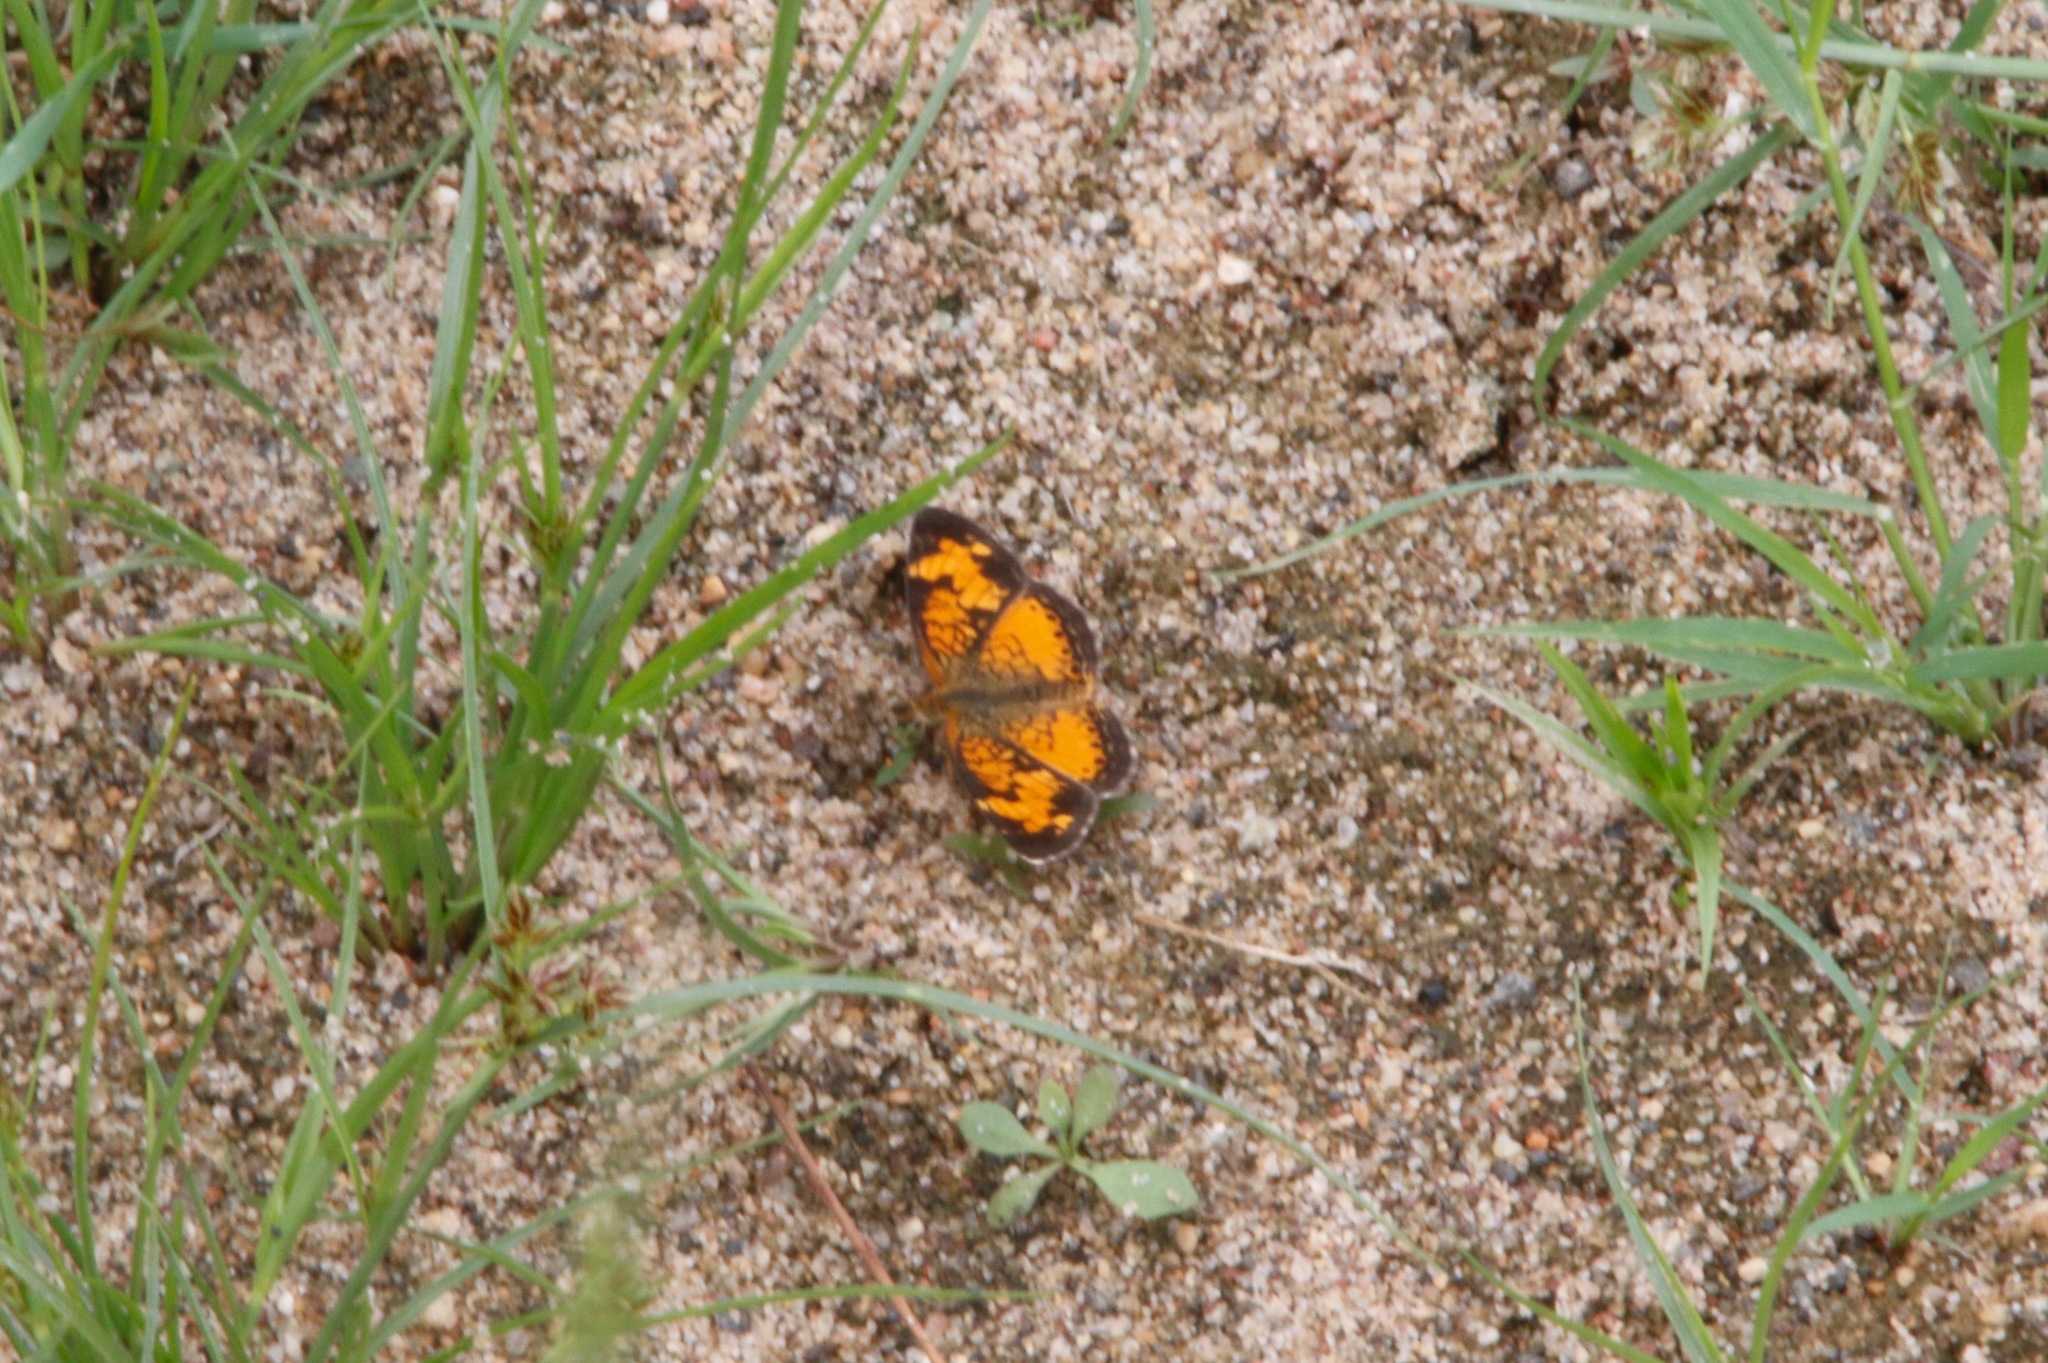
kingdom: Animalia
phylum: Arthropoda
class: Insecta
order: Lepidoptera
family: Nymphalidae
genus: Phyciodes
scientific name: Phyciodes tharos
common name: Pearl crescent
